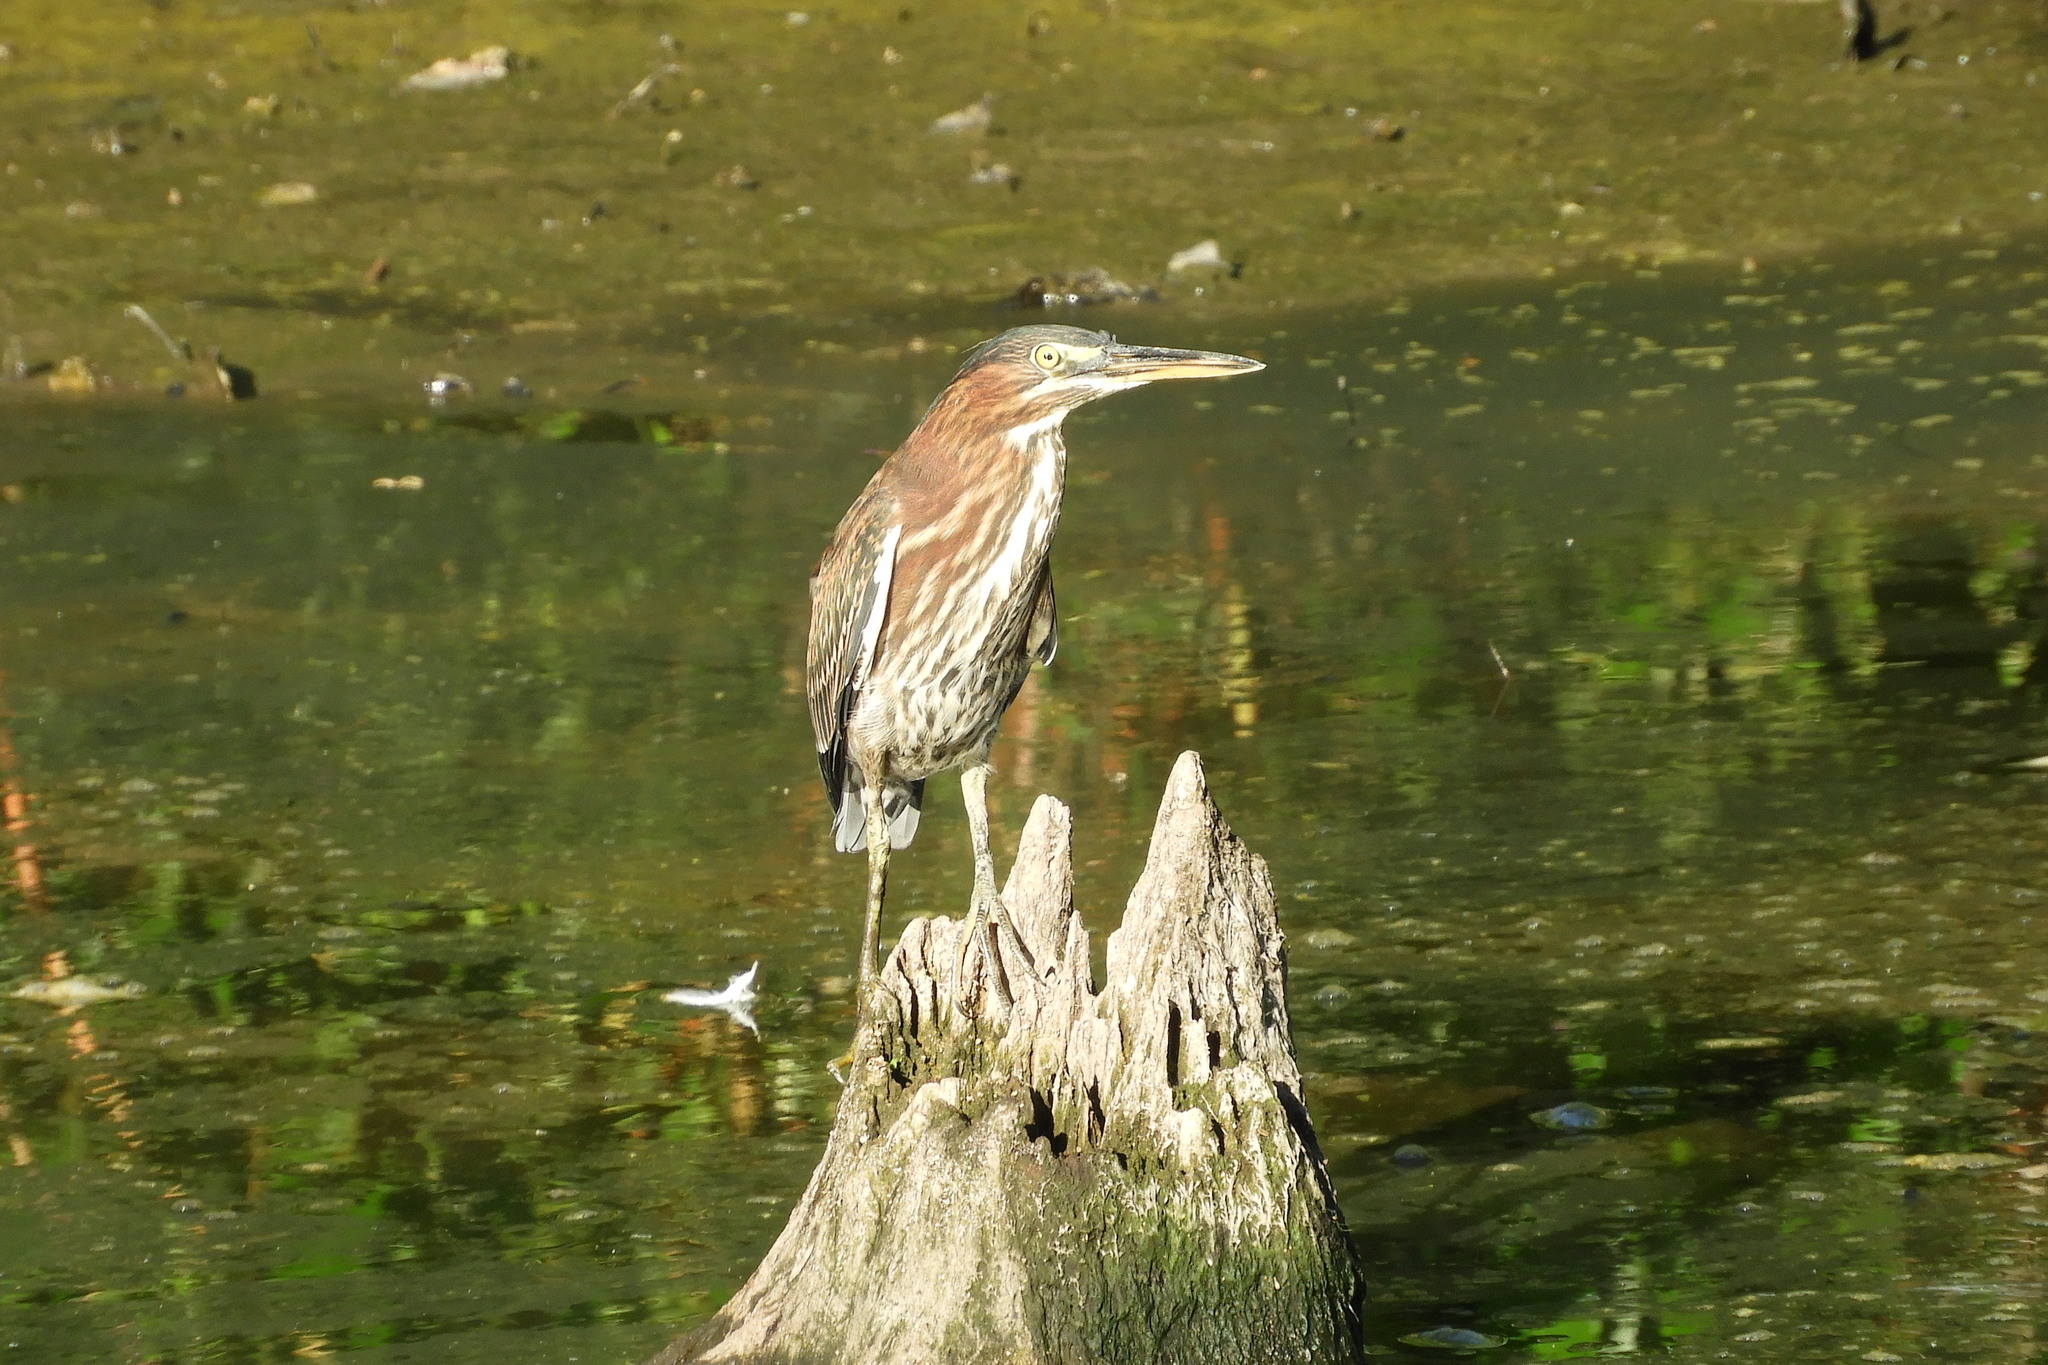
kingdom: Animalia
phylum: Chordata
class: Aves
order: Pelecaniformes
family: Ardeidae
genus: Butorides
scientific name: Butorides virescens
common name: Green heron
